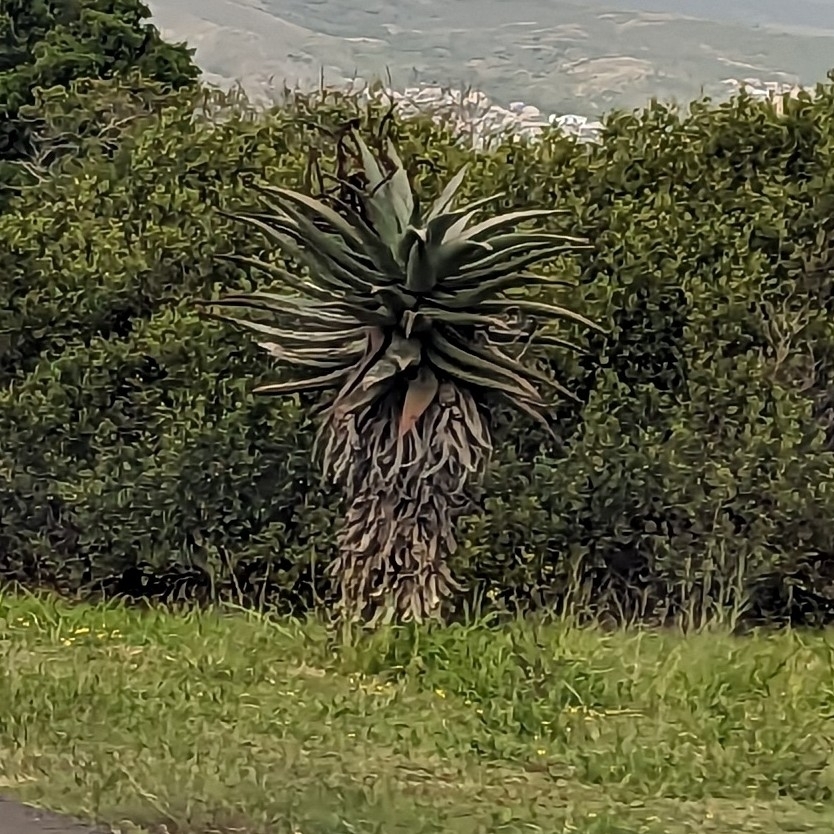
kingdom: Plantae
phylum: Tracheophyta
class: Liliopsida
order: Asparagales
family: Asphodelaceae
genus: Aloe
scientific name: Aloe ferox
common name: Bitter aloe
